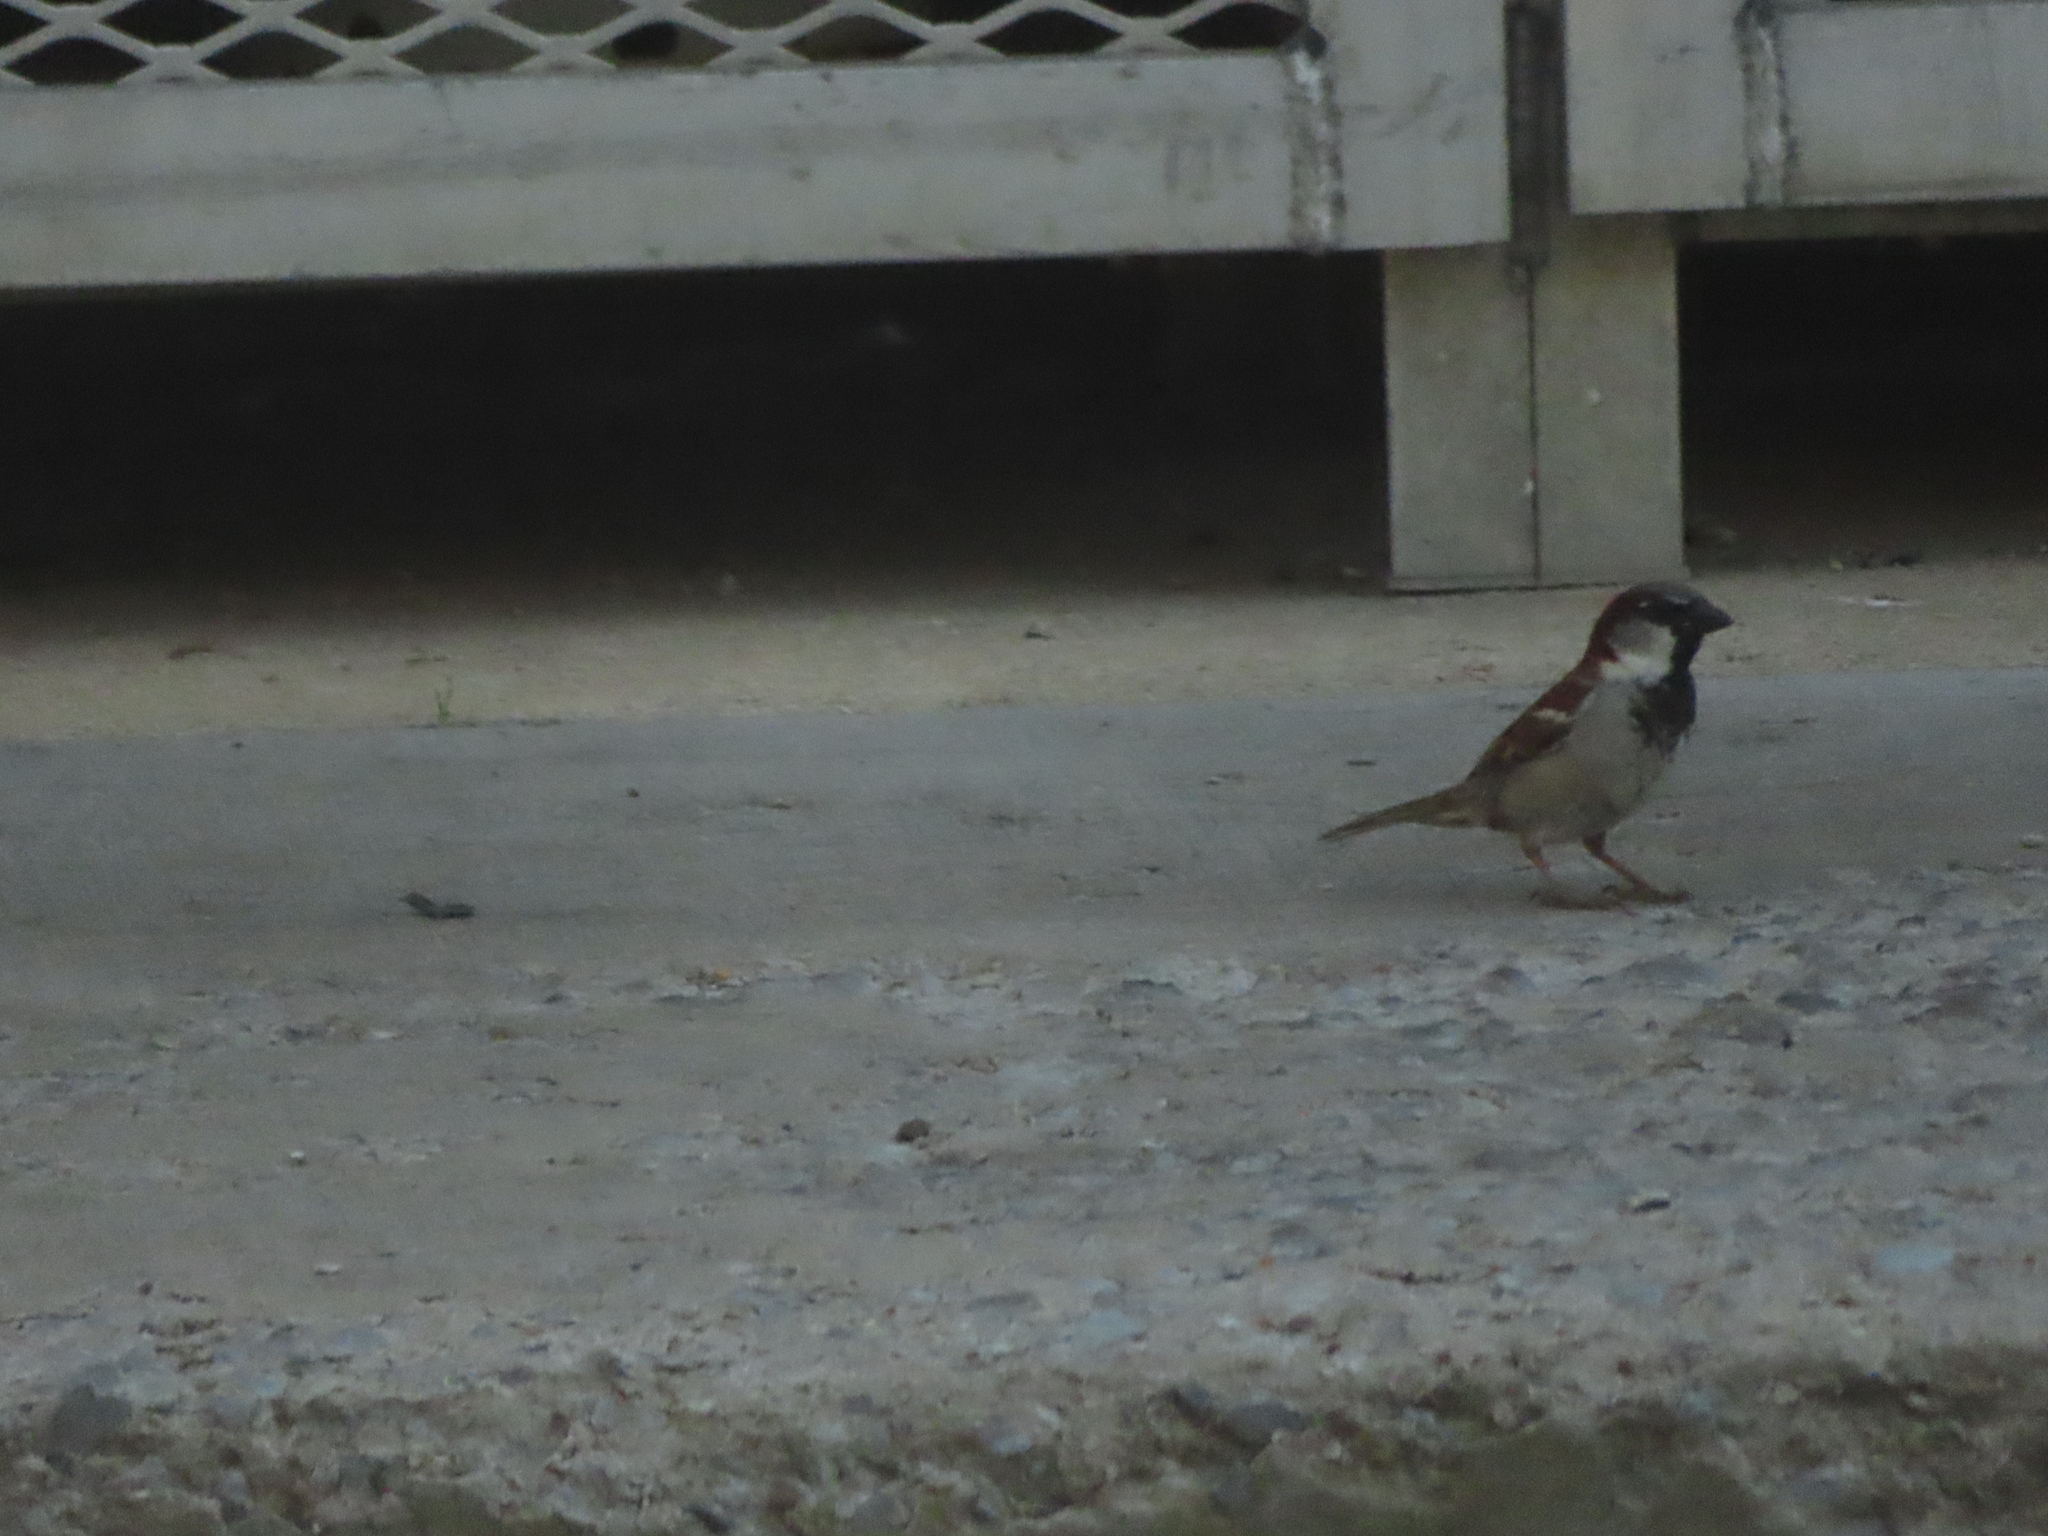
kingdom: Animalia
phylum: Chordata
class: Aves
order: Passeriformes
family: Passeridae
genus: Passer
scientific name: Passer domesticus
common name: House sparrow
